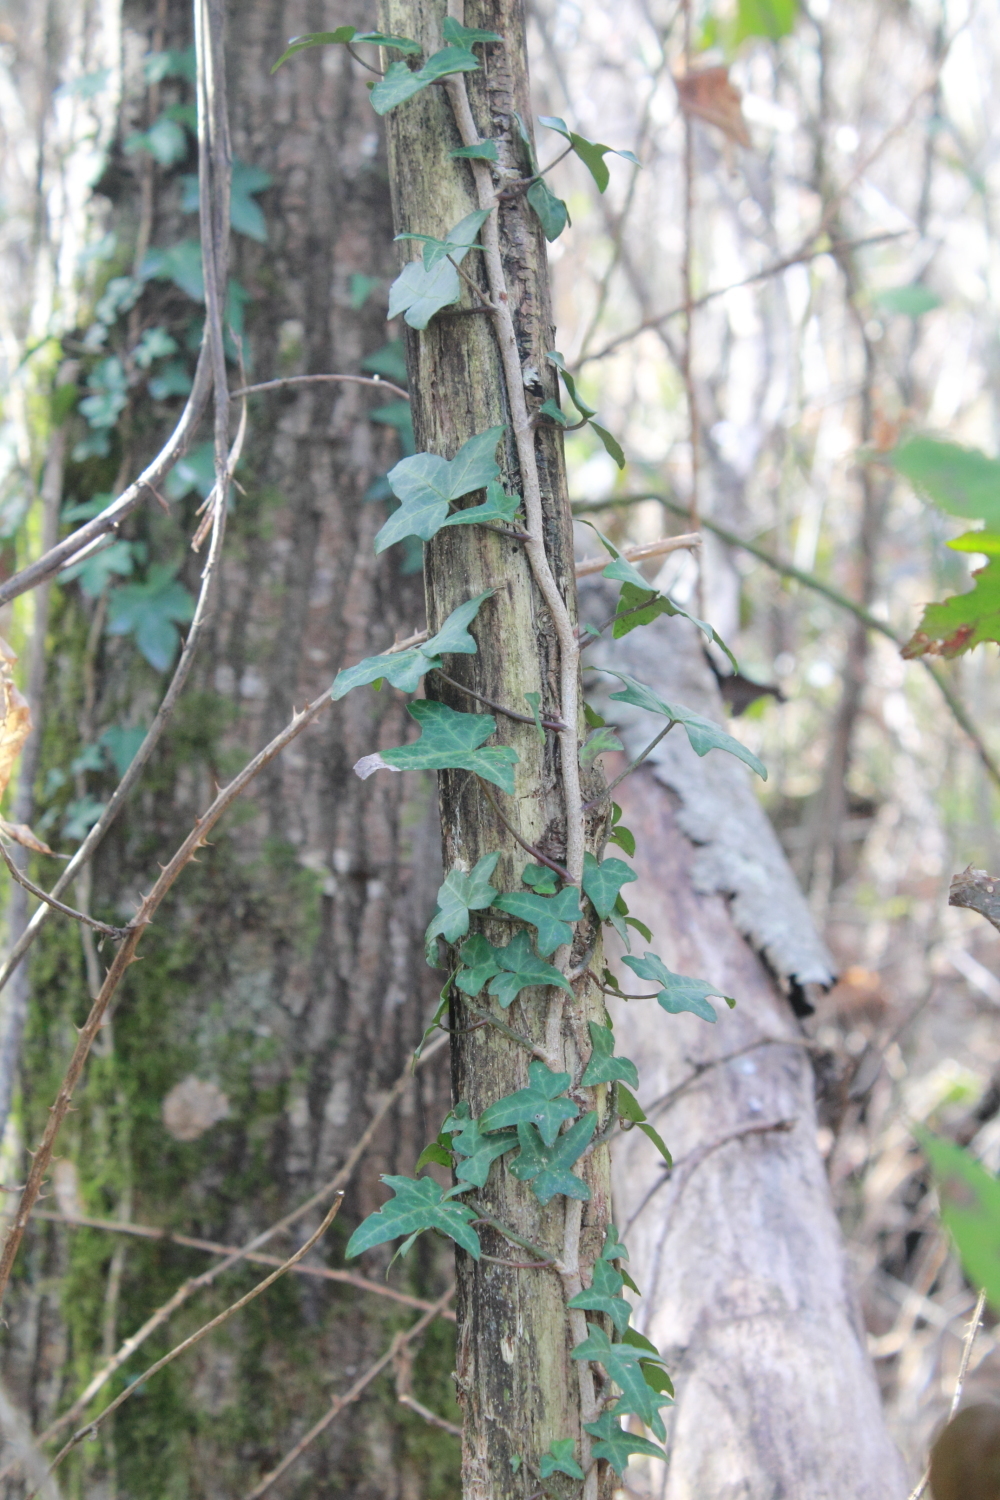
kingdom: Plantae
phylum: Tracheophyta
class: Magnoliopsida
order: Apiales
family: Araliaceae
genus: Hedera
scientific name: Hedera helix
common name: Ivy
